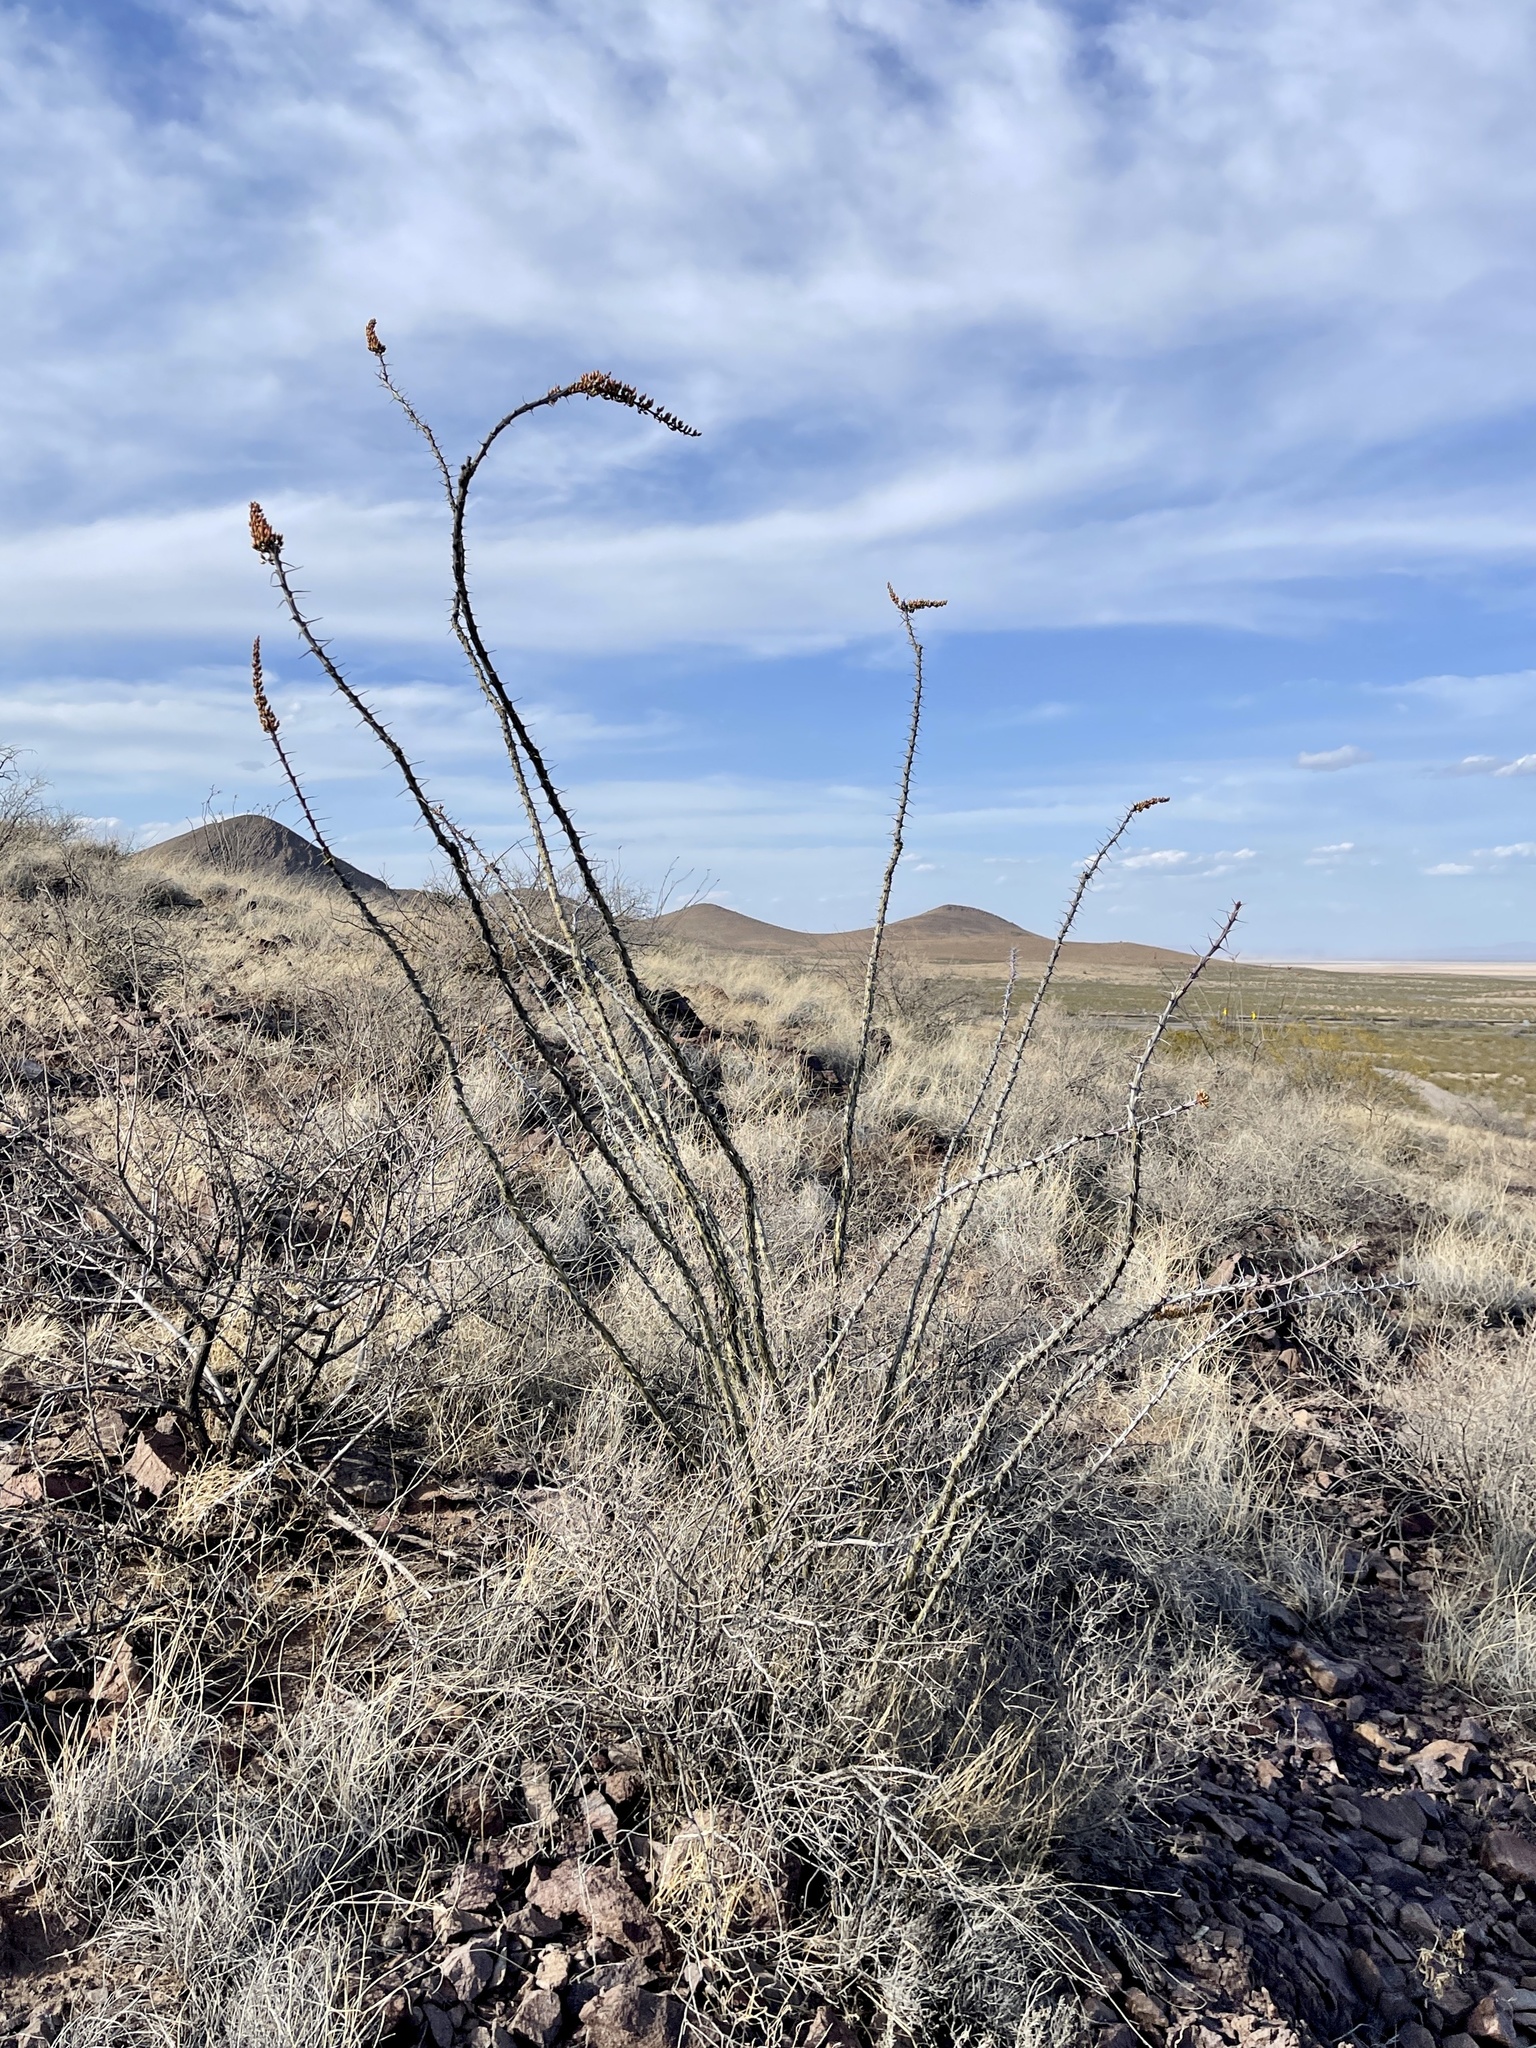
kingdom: Plantae
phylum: Tracheophyta
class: Magnoliopsida
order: Ericales
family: Fouquieriaceae
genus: Fouquieria
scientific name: Fouquieria splendens
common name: Vine-cactus
